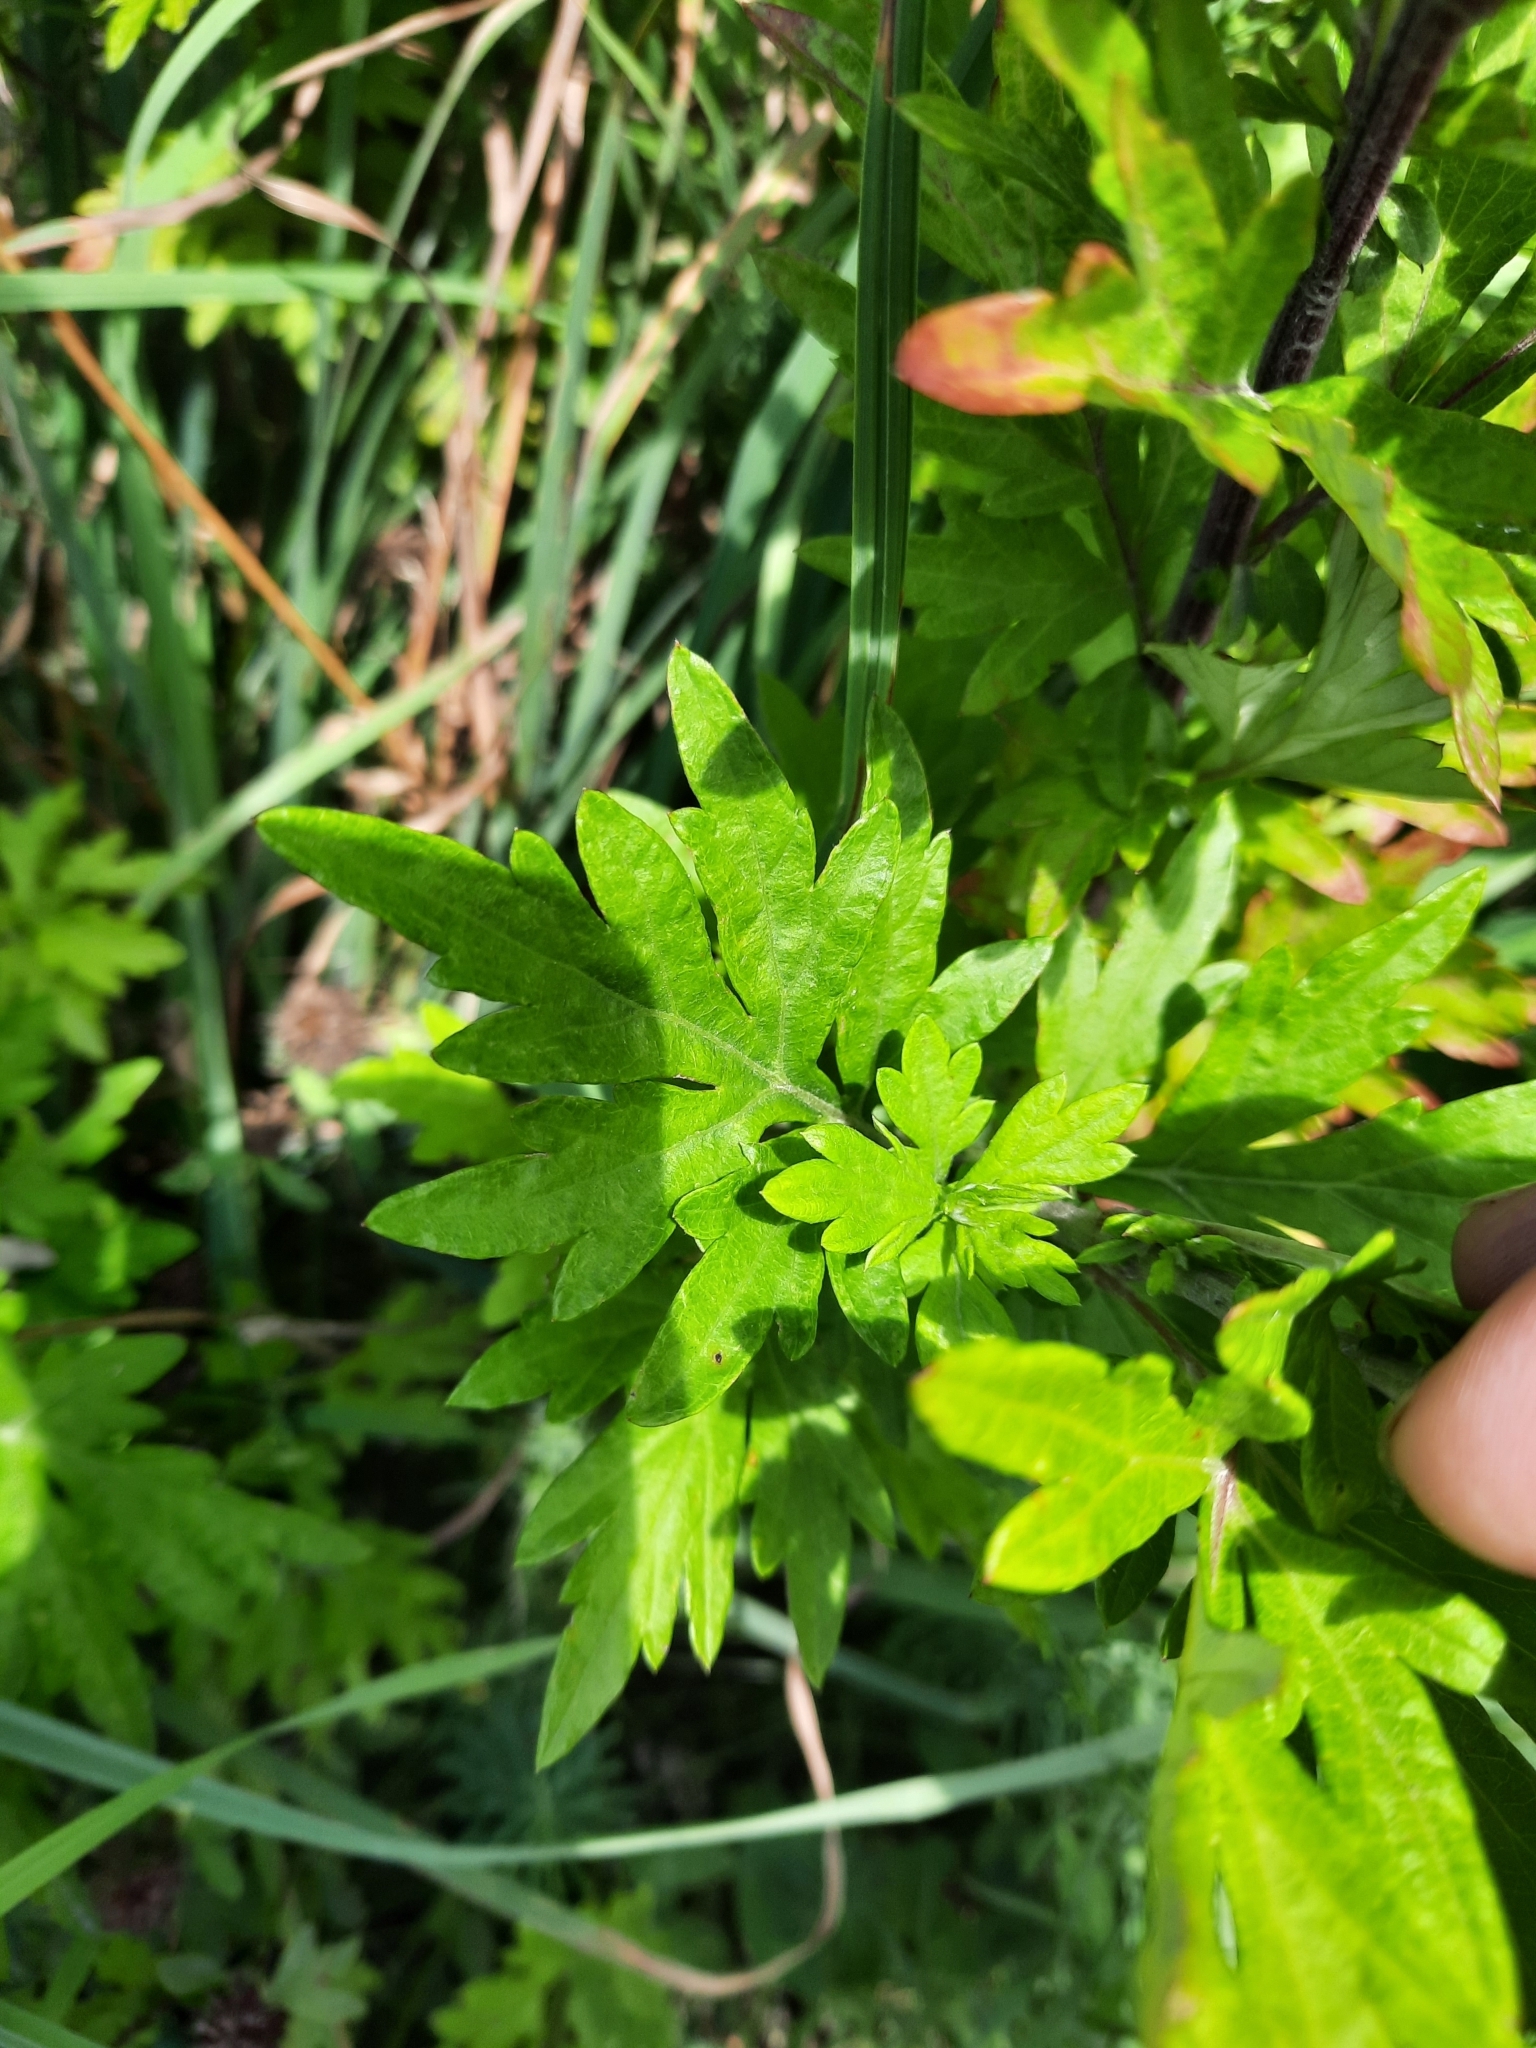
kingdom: Plantae
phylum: Tracheophyta
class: Magnoliopsida
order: Asterales
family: Asteraceae
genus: Artemisia
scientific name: Artemisia vulgaris
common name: Mugwort
